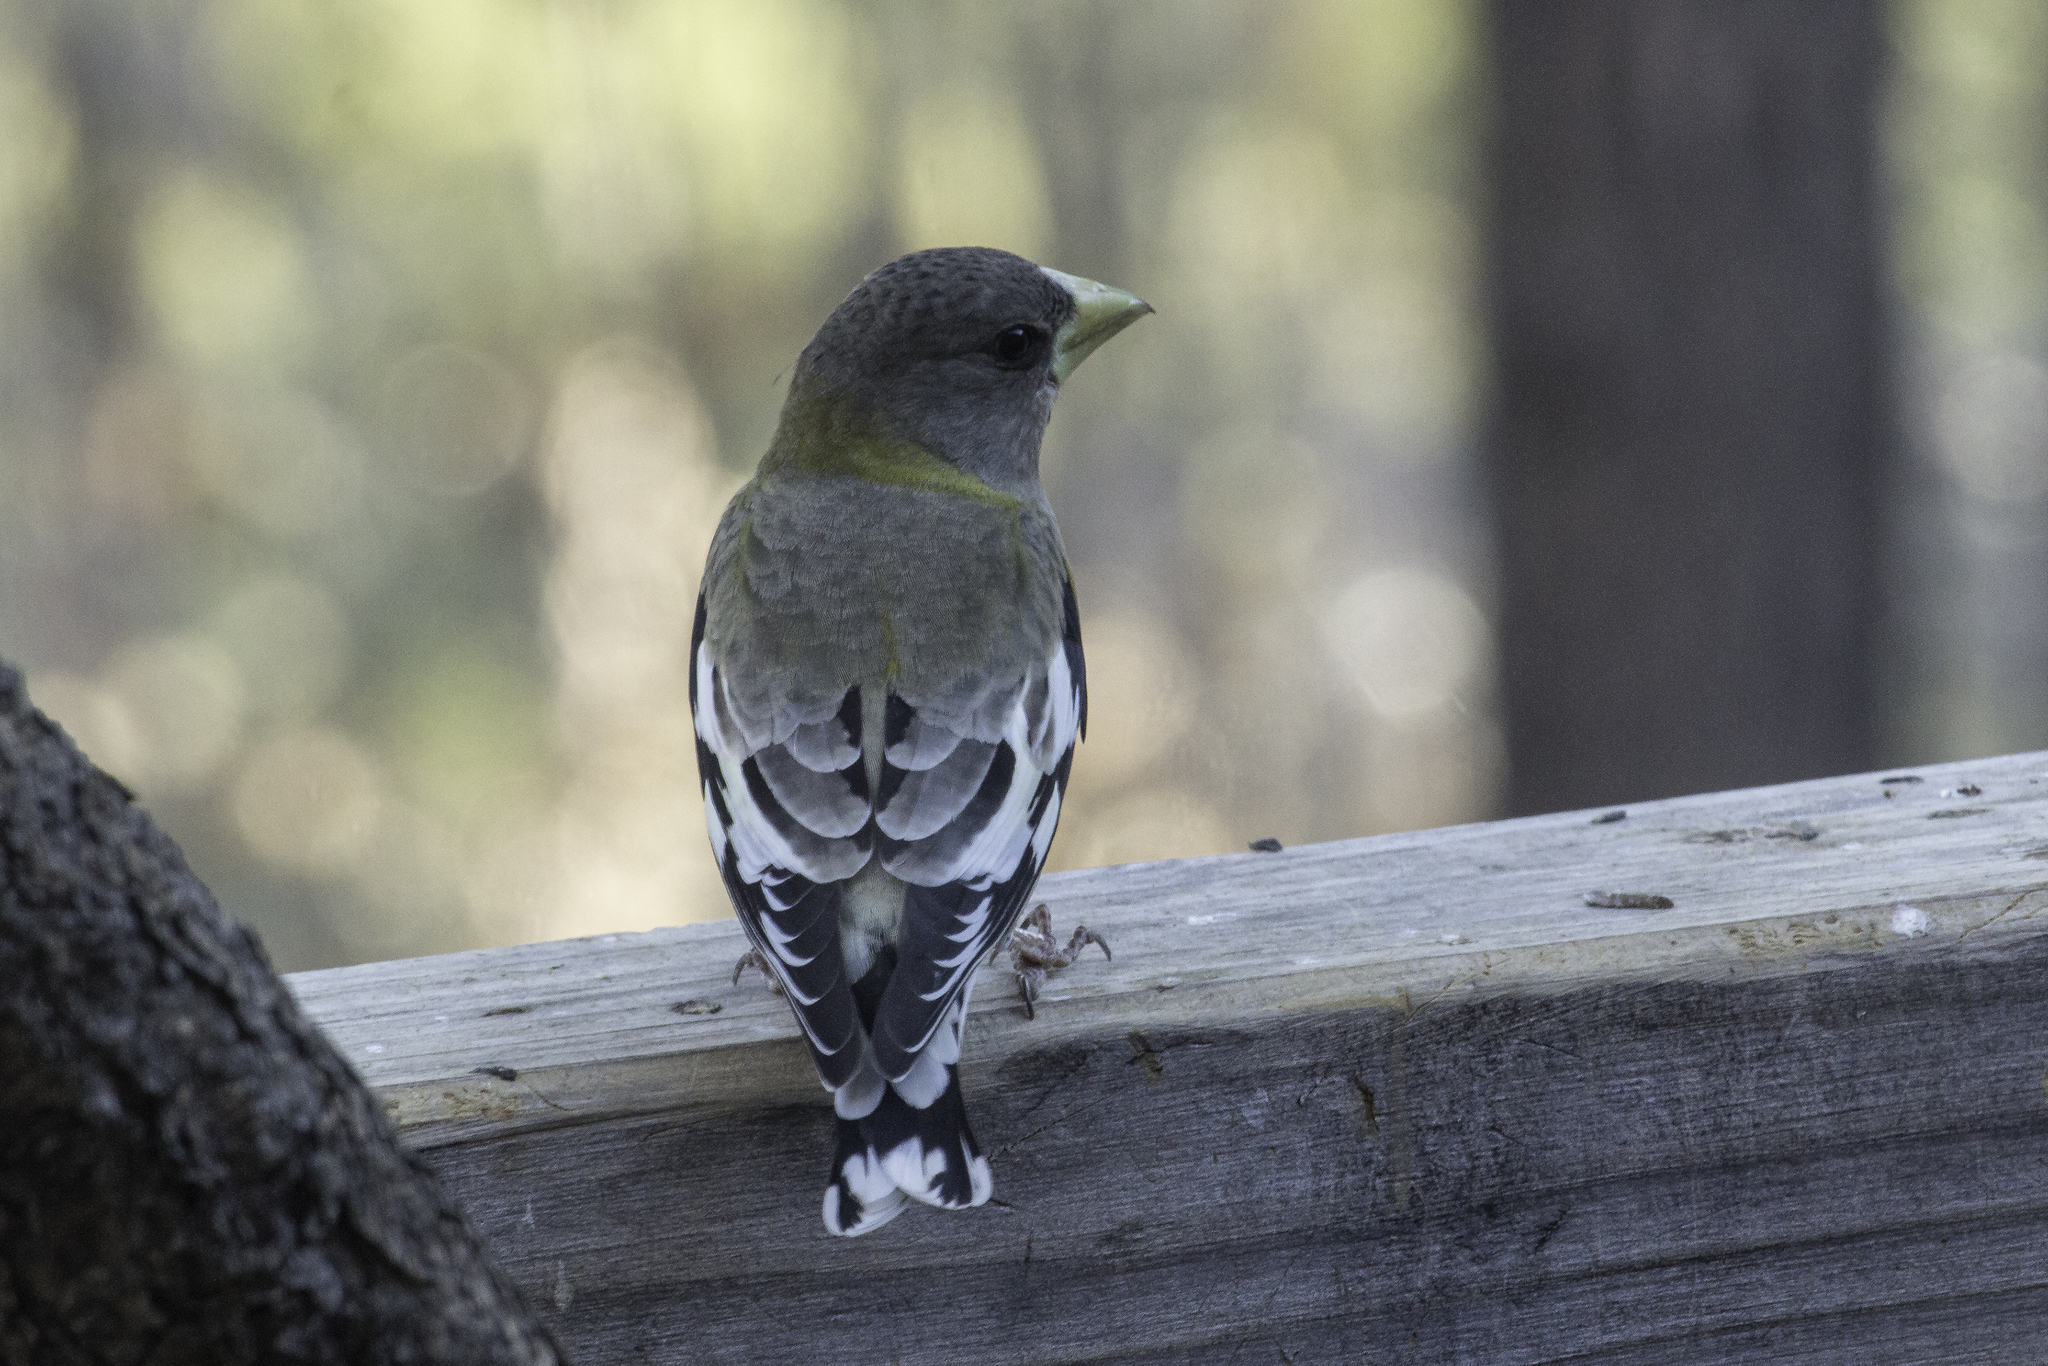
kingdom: Animalia
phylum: Chordata
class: Aves
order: Passeriformes
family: Fringillidae
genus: Hesperiphona
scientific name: Hesperiphona vespertina
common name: Evening grosbeak
